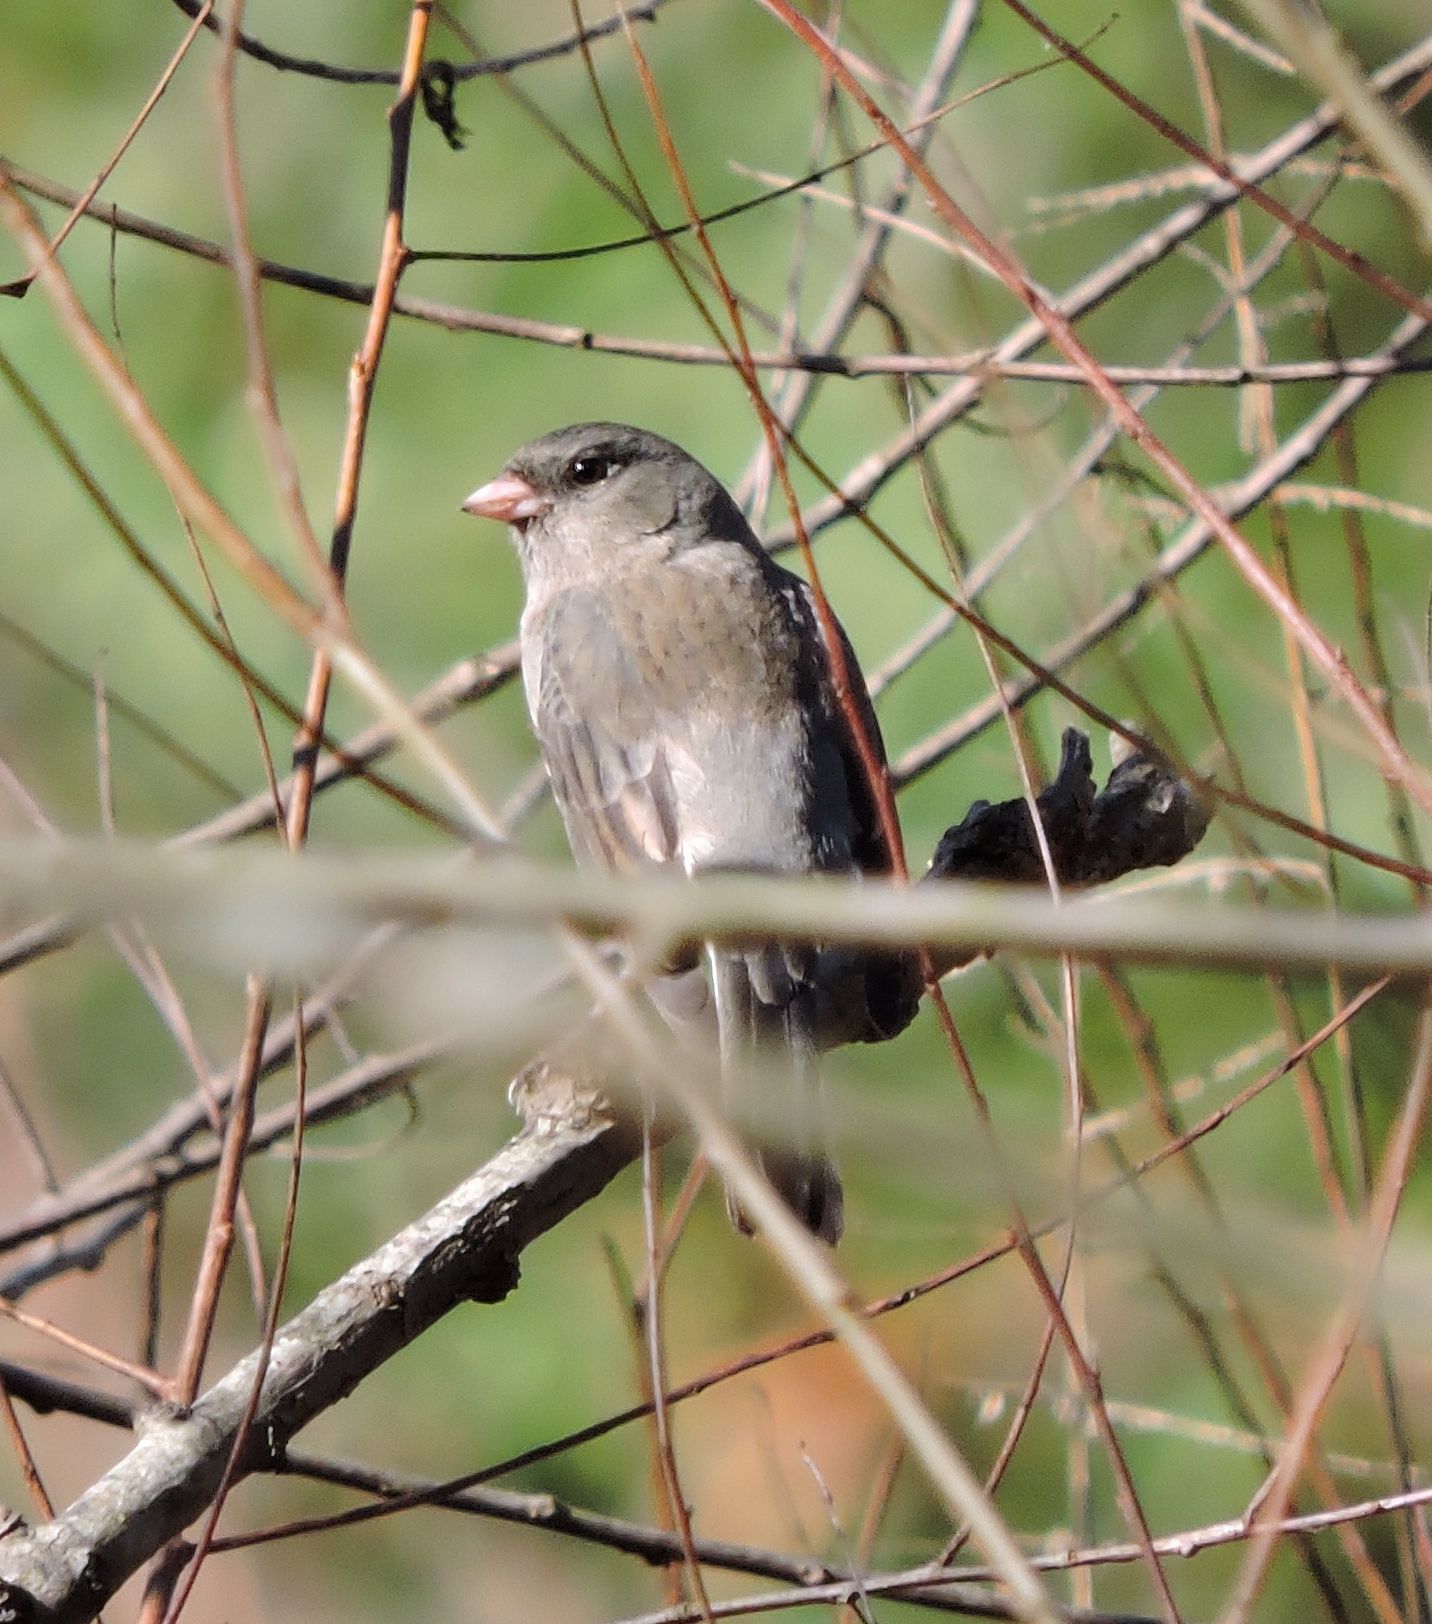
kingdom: Animalia
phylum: Chordata
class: Aves
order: Passeriformes
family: Passerellidae
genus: Junco
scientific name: Junco hyemalis
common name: Dark-eyed junco
